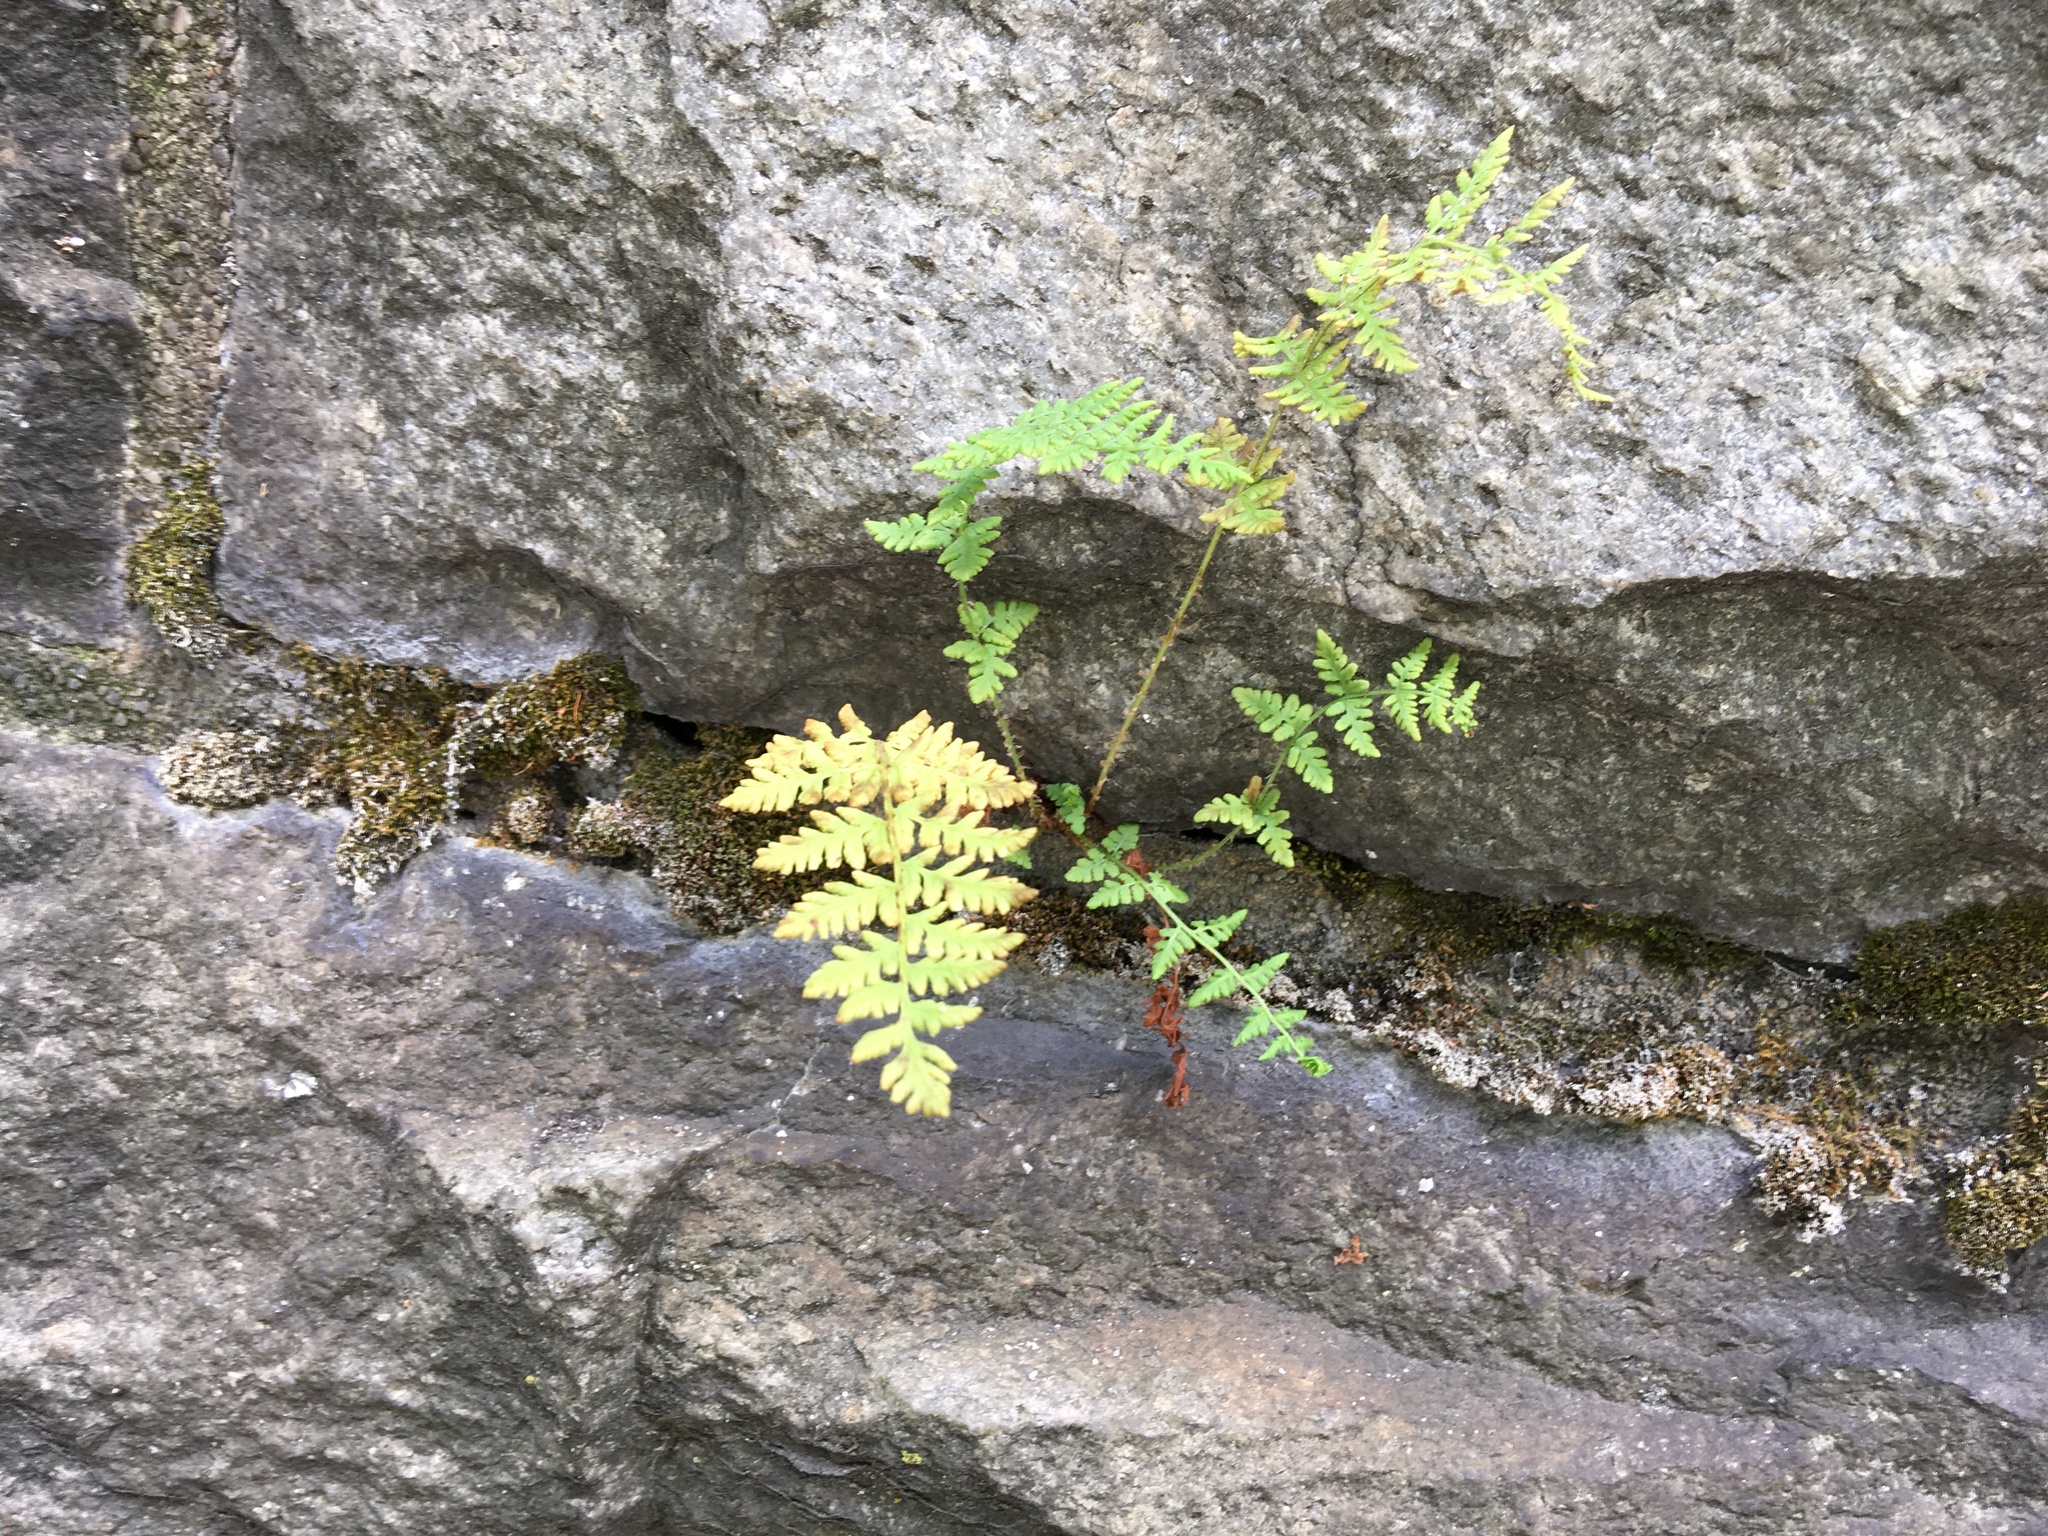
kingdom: Plantae
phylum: Tracheophyta
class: Polypodiopsida
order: Polypodiales
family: Woodsiaceae
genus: Physematium
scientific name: Physematium obtusum
